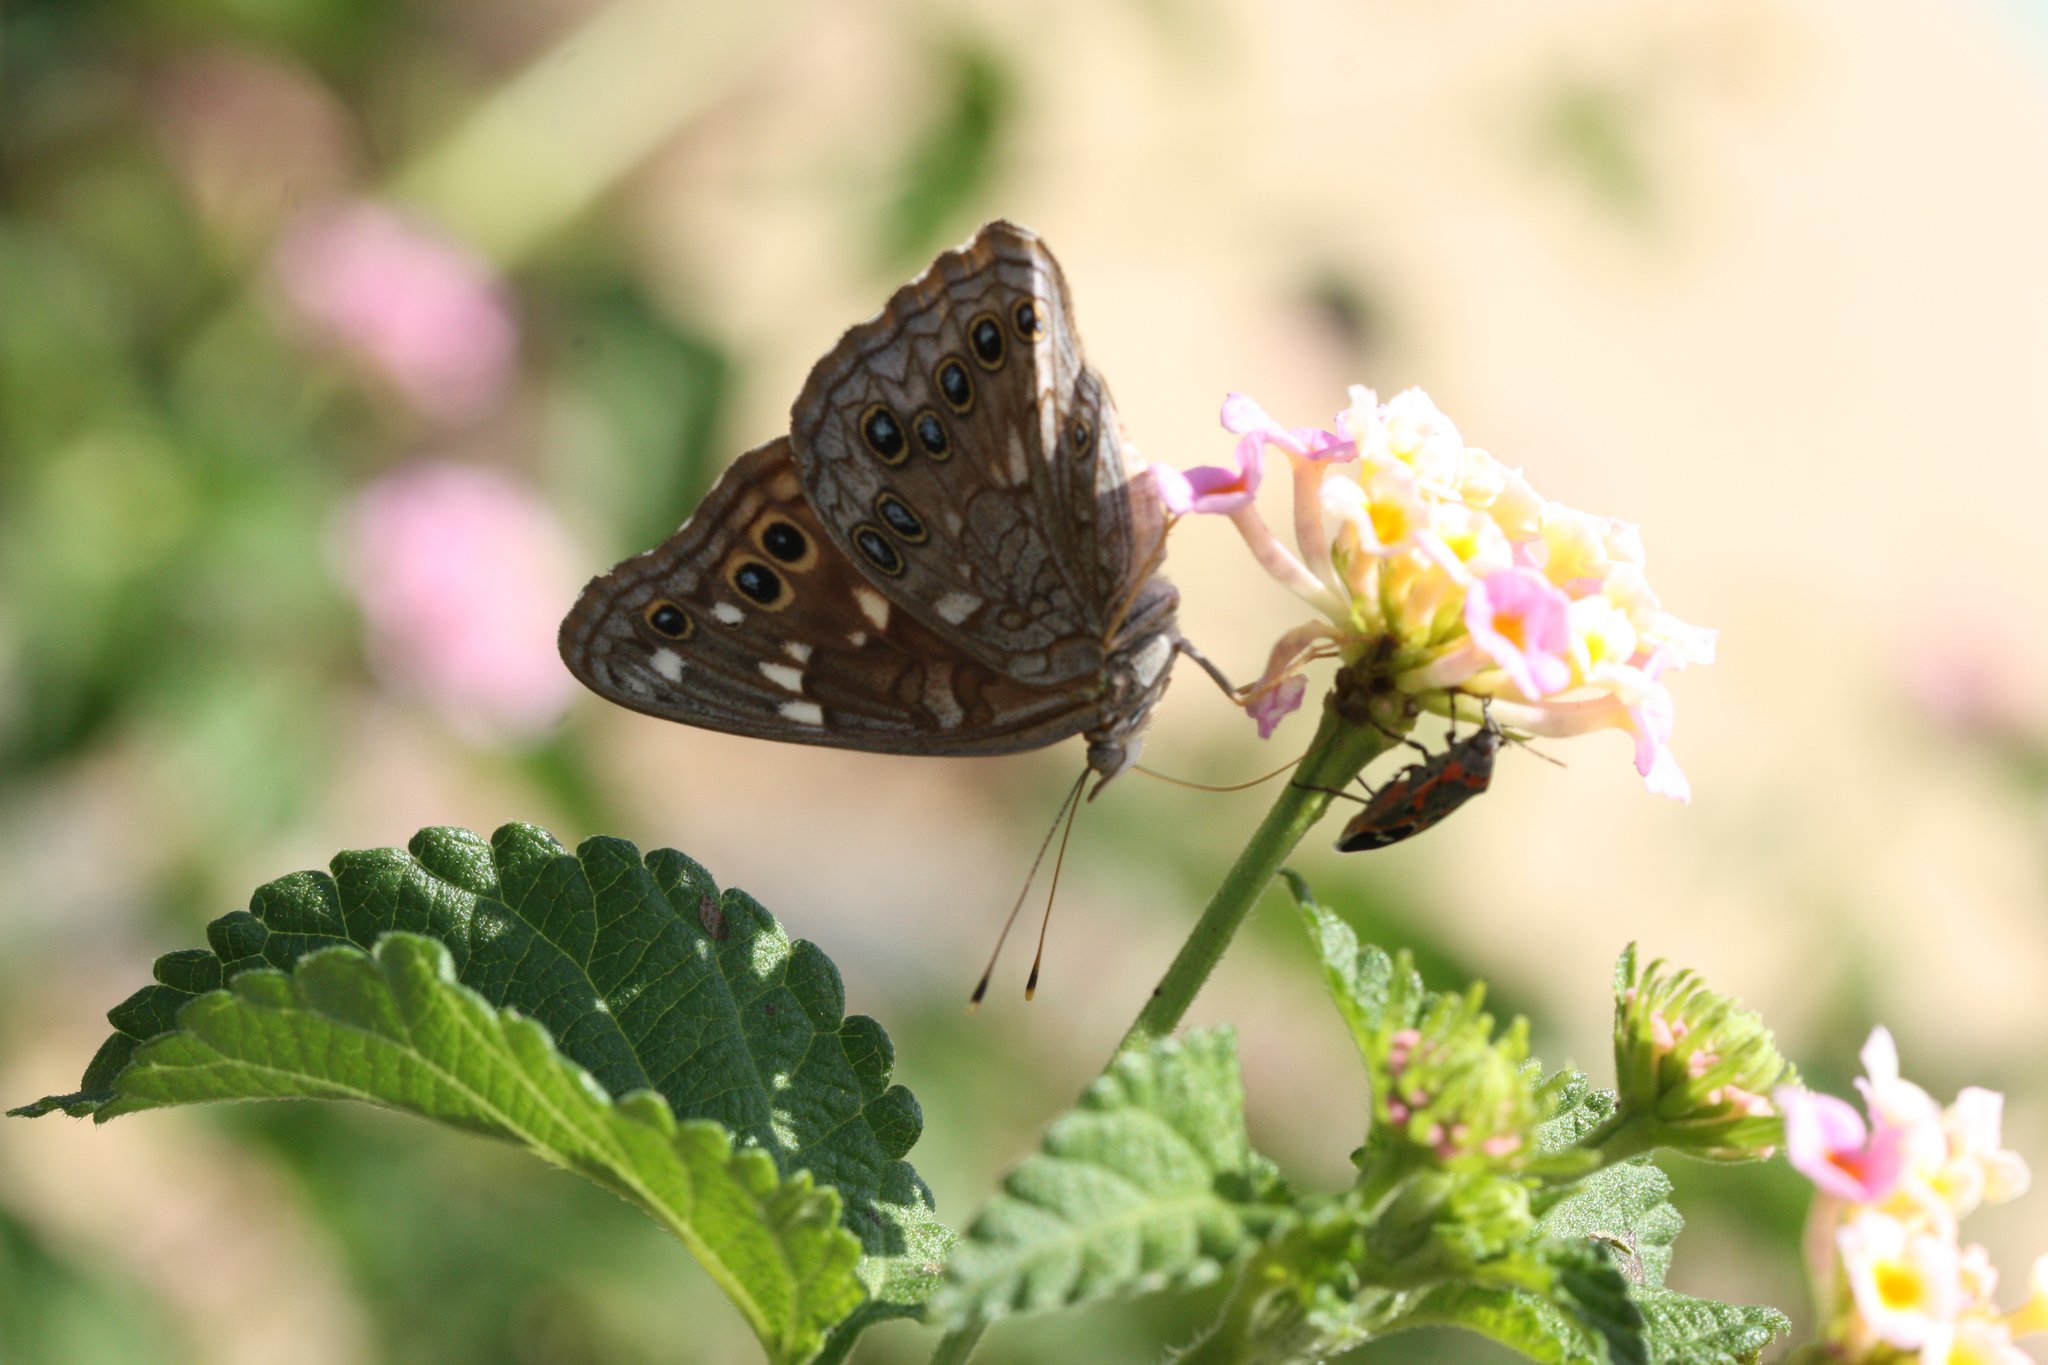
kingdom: Animalia
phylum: Arthropoda
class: Insecta
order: Lepidoptera
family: Nymphalidae
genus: Asterocampa
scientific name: Asterocampa leilia
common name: Empress leilia
